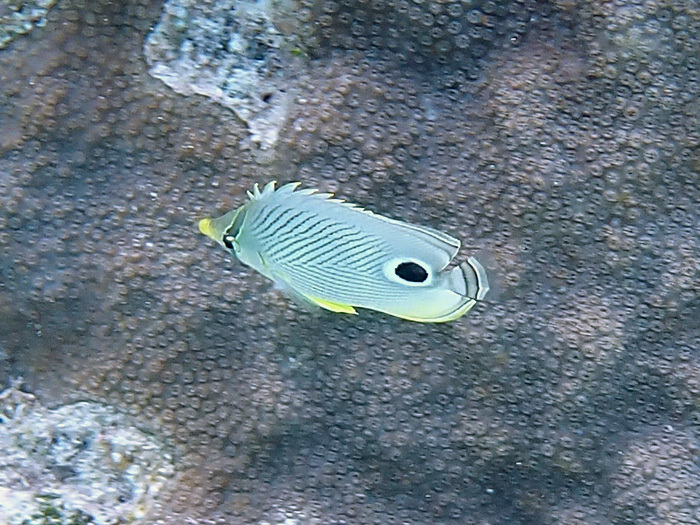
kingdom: Animalia
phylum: Chordata
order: Perciformes
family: Chaetodontidae
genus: Chaetodon
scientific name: Chaetodon capistratus
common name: Kete
